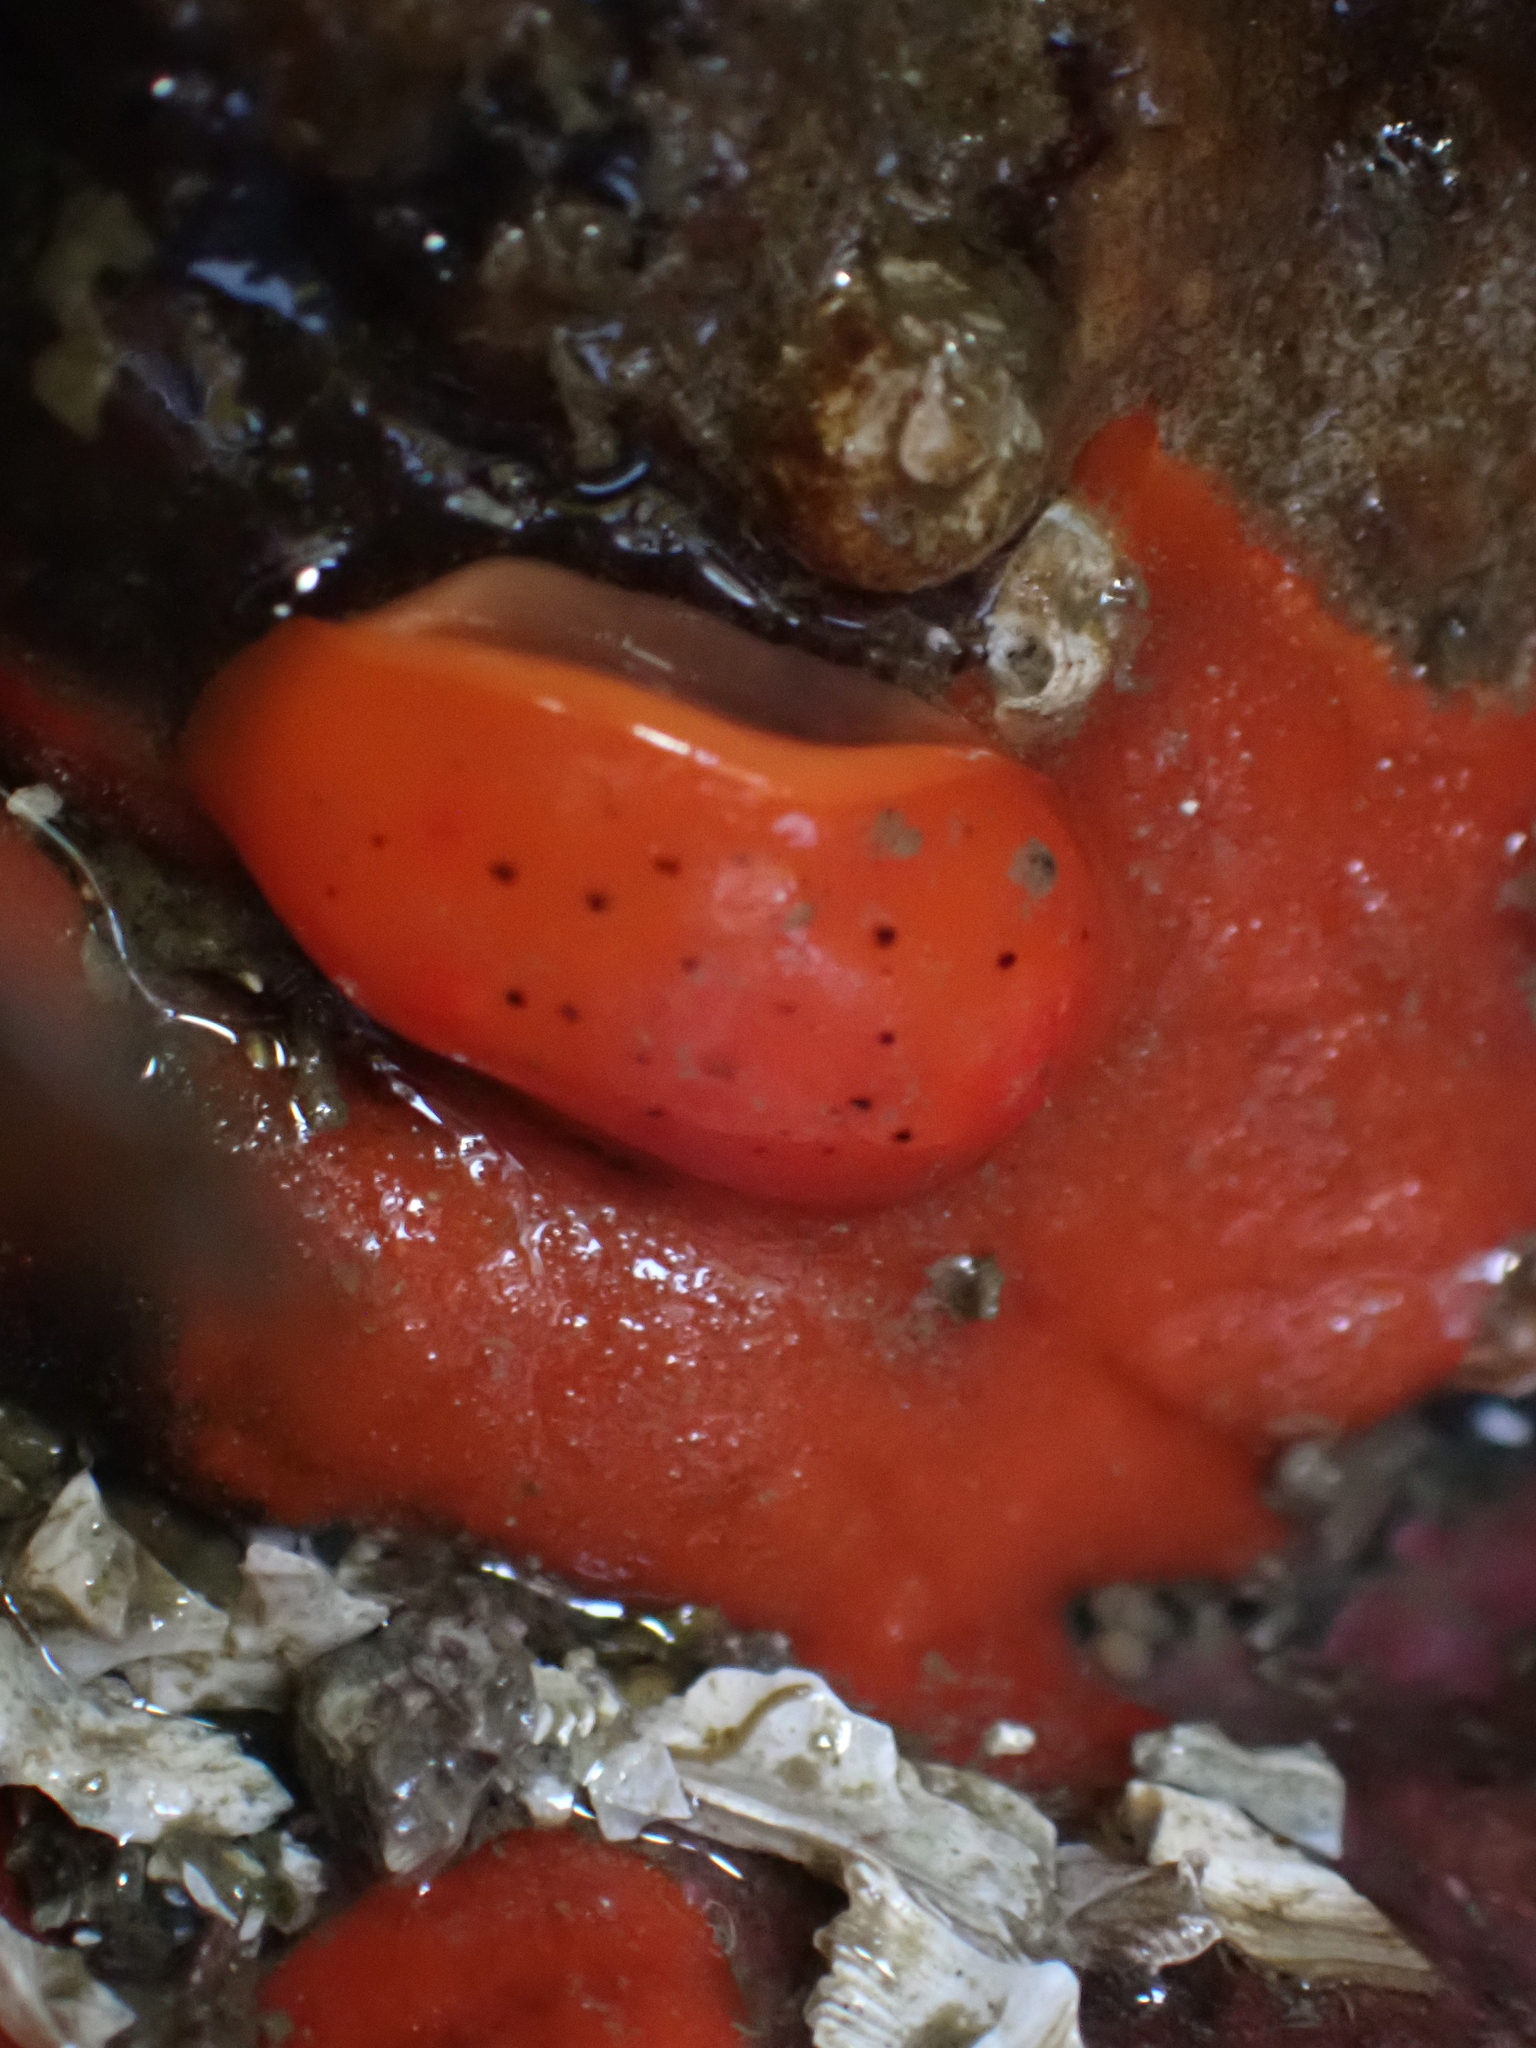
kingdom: Animalia
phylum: Mollusca
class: Gastropoda
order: Nudibranchia
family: Discodorididae
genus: Rostanga
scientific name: Rostanga pulchra
